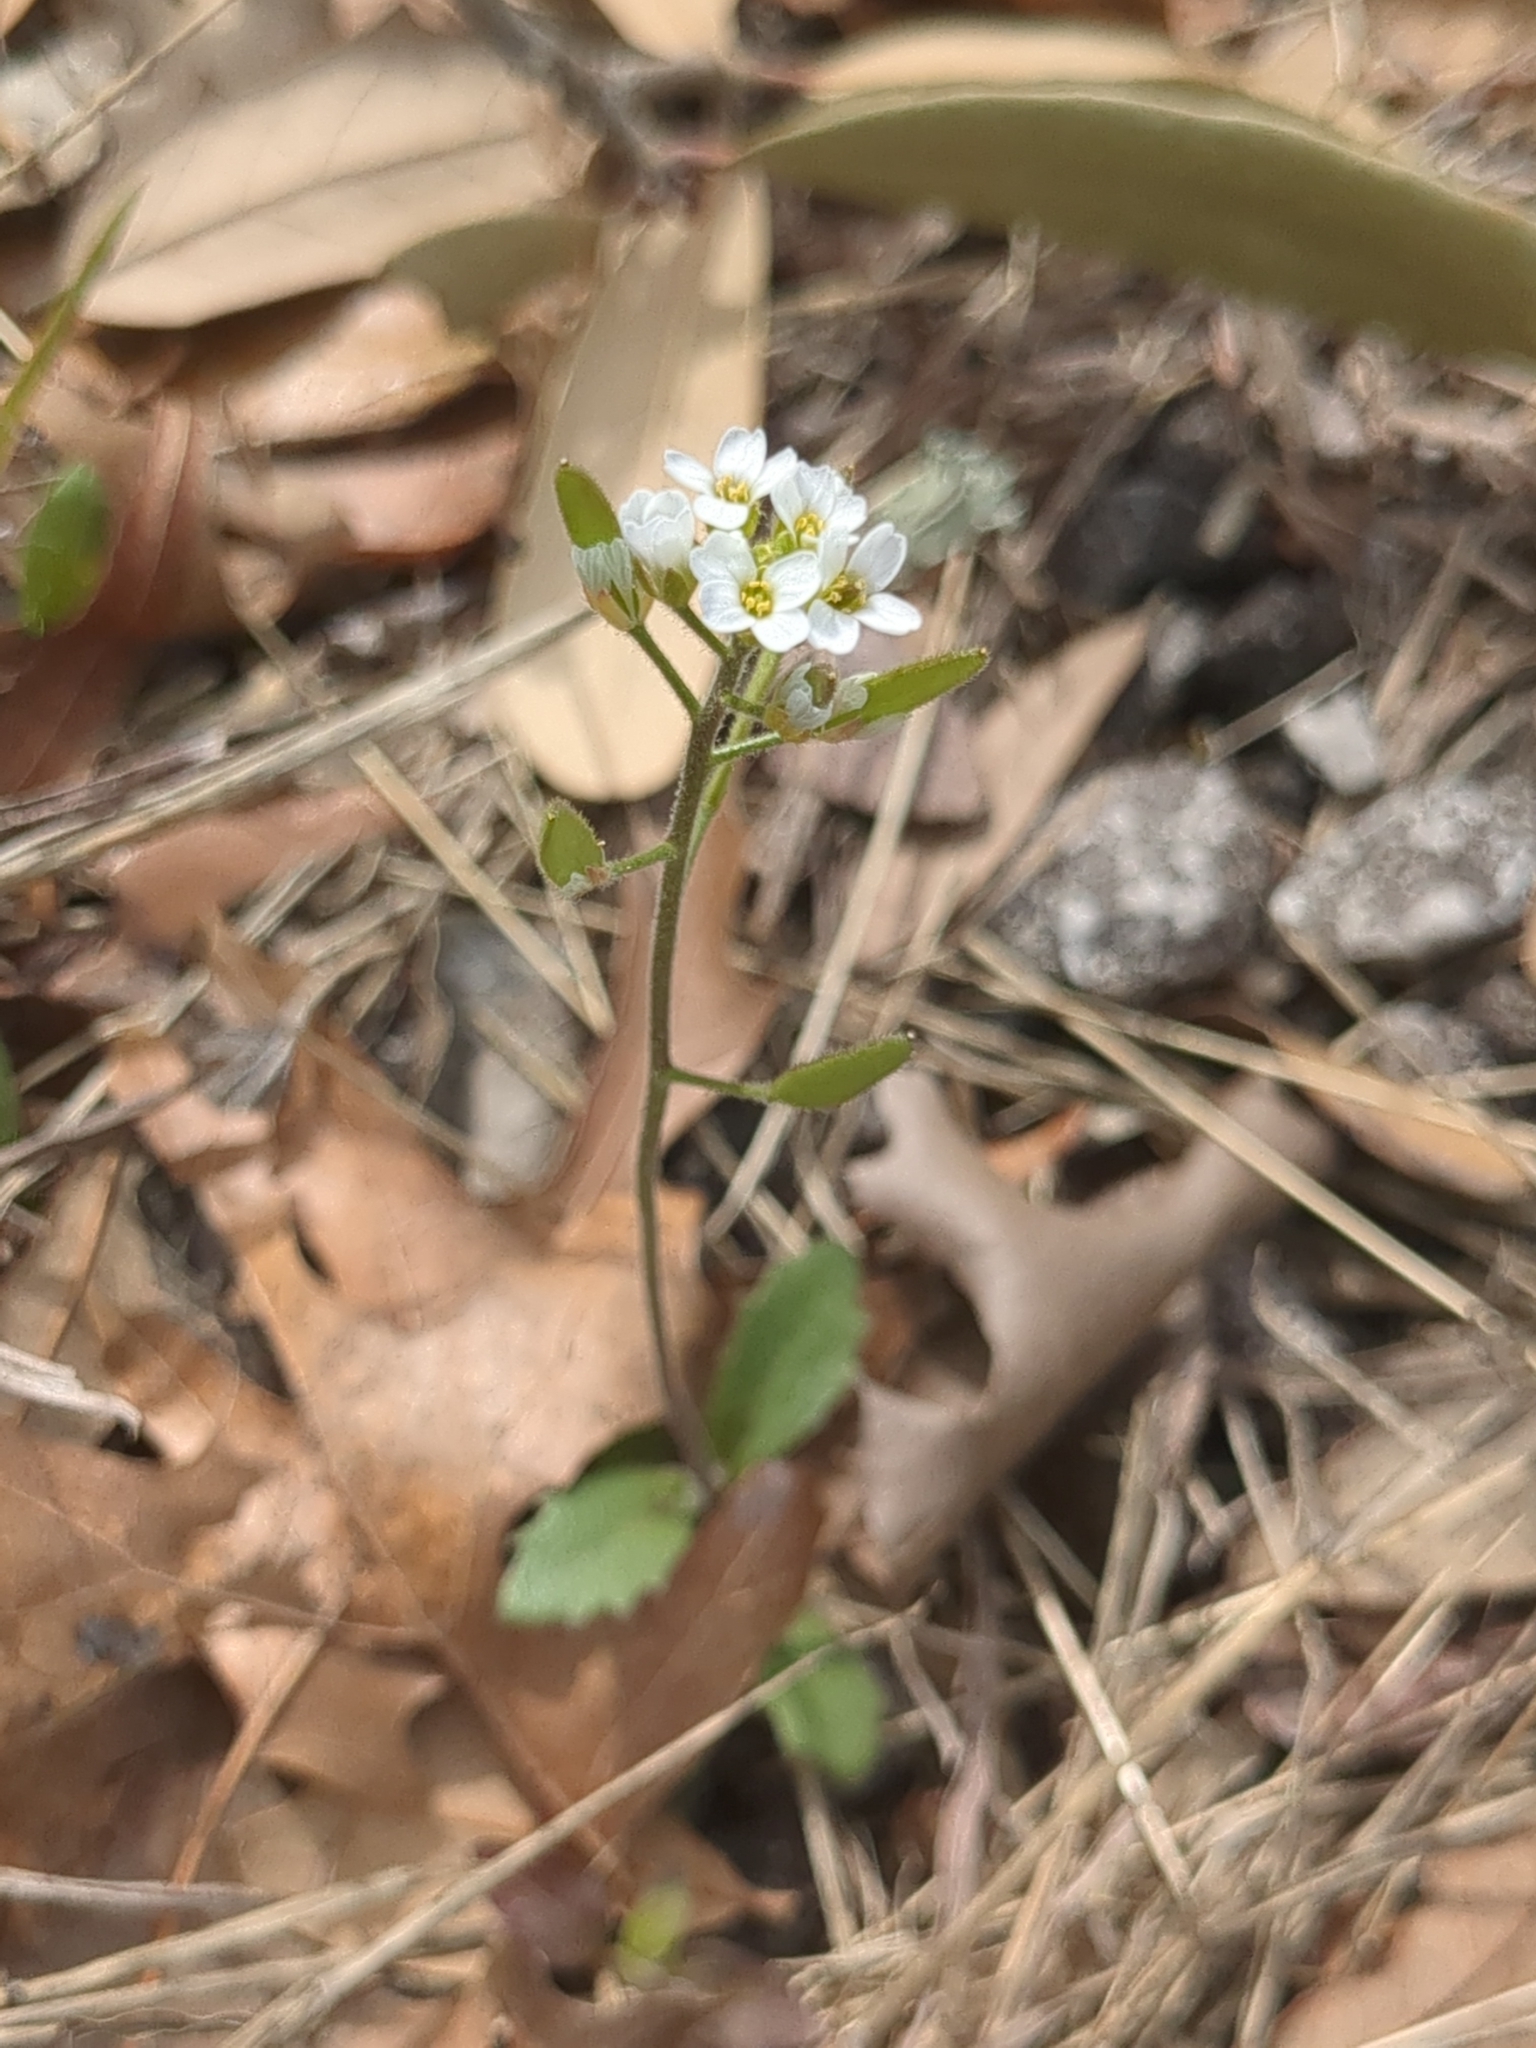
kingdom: Plantae
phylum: Tracheophyta
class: Magnoliopsida
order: Brassicales
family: Brassicaceae
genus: Tomostima
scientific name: Tomostima cuneifolia
